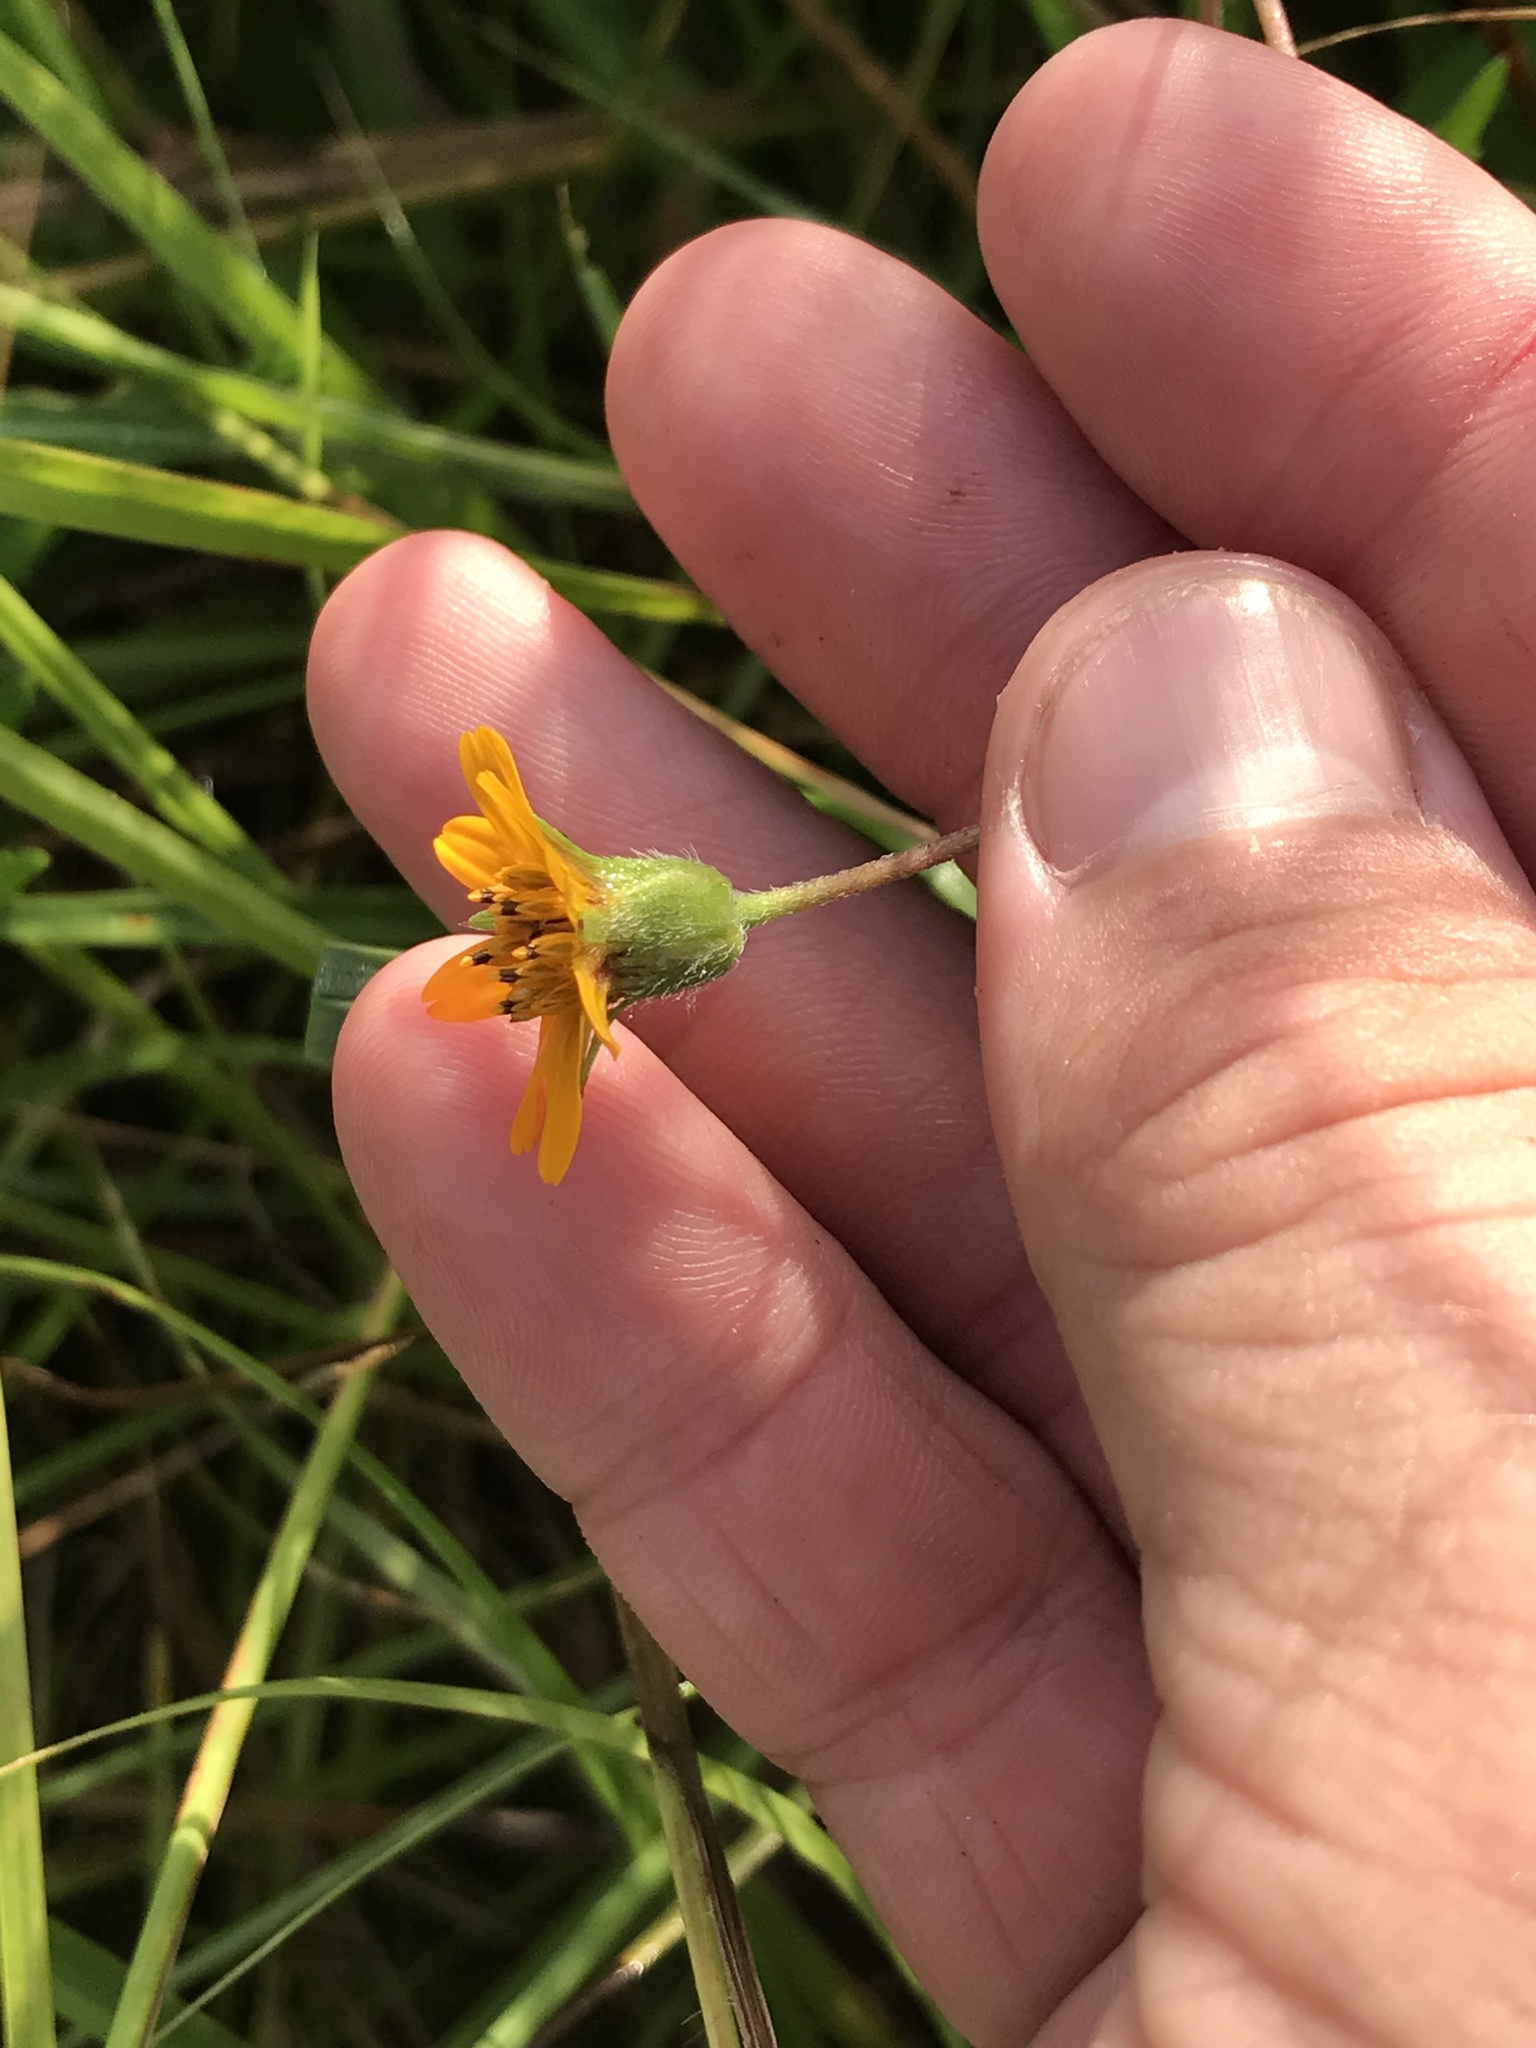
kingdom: Plantae
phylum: Tracheophyta
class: Magnoliopsida
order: Asterales
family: Asteraceae
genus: Wedelia
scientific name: Wedelia acapulcensis
